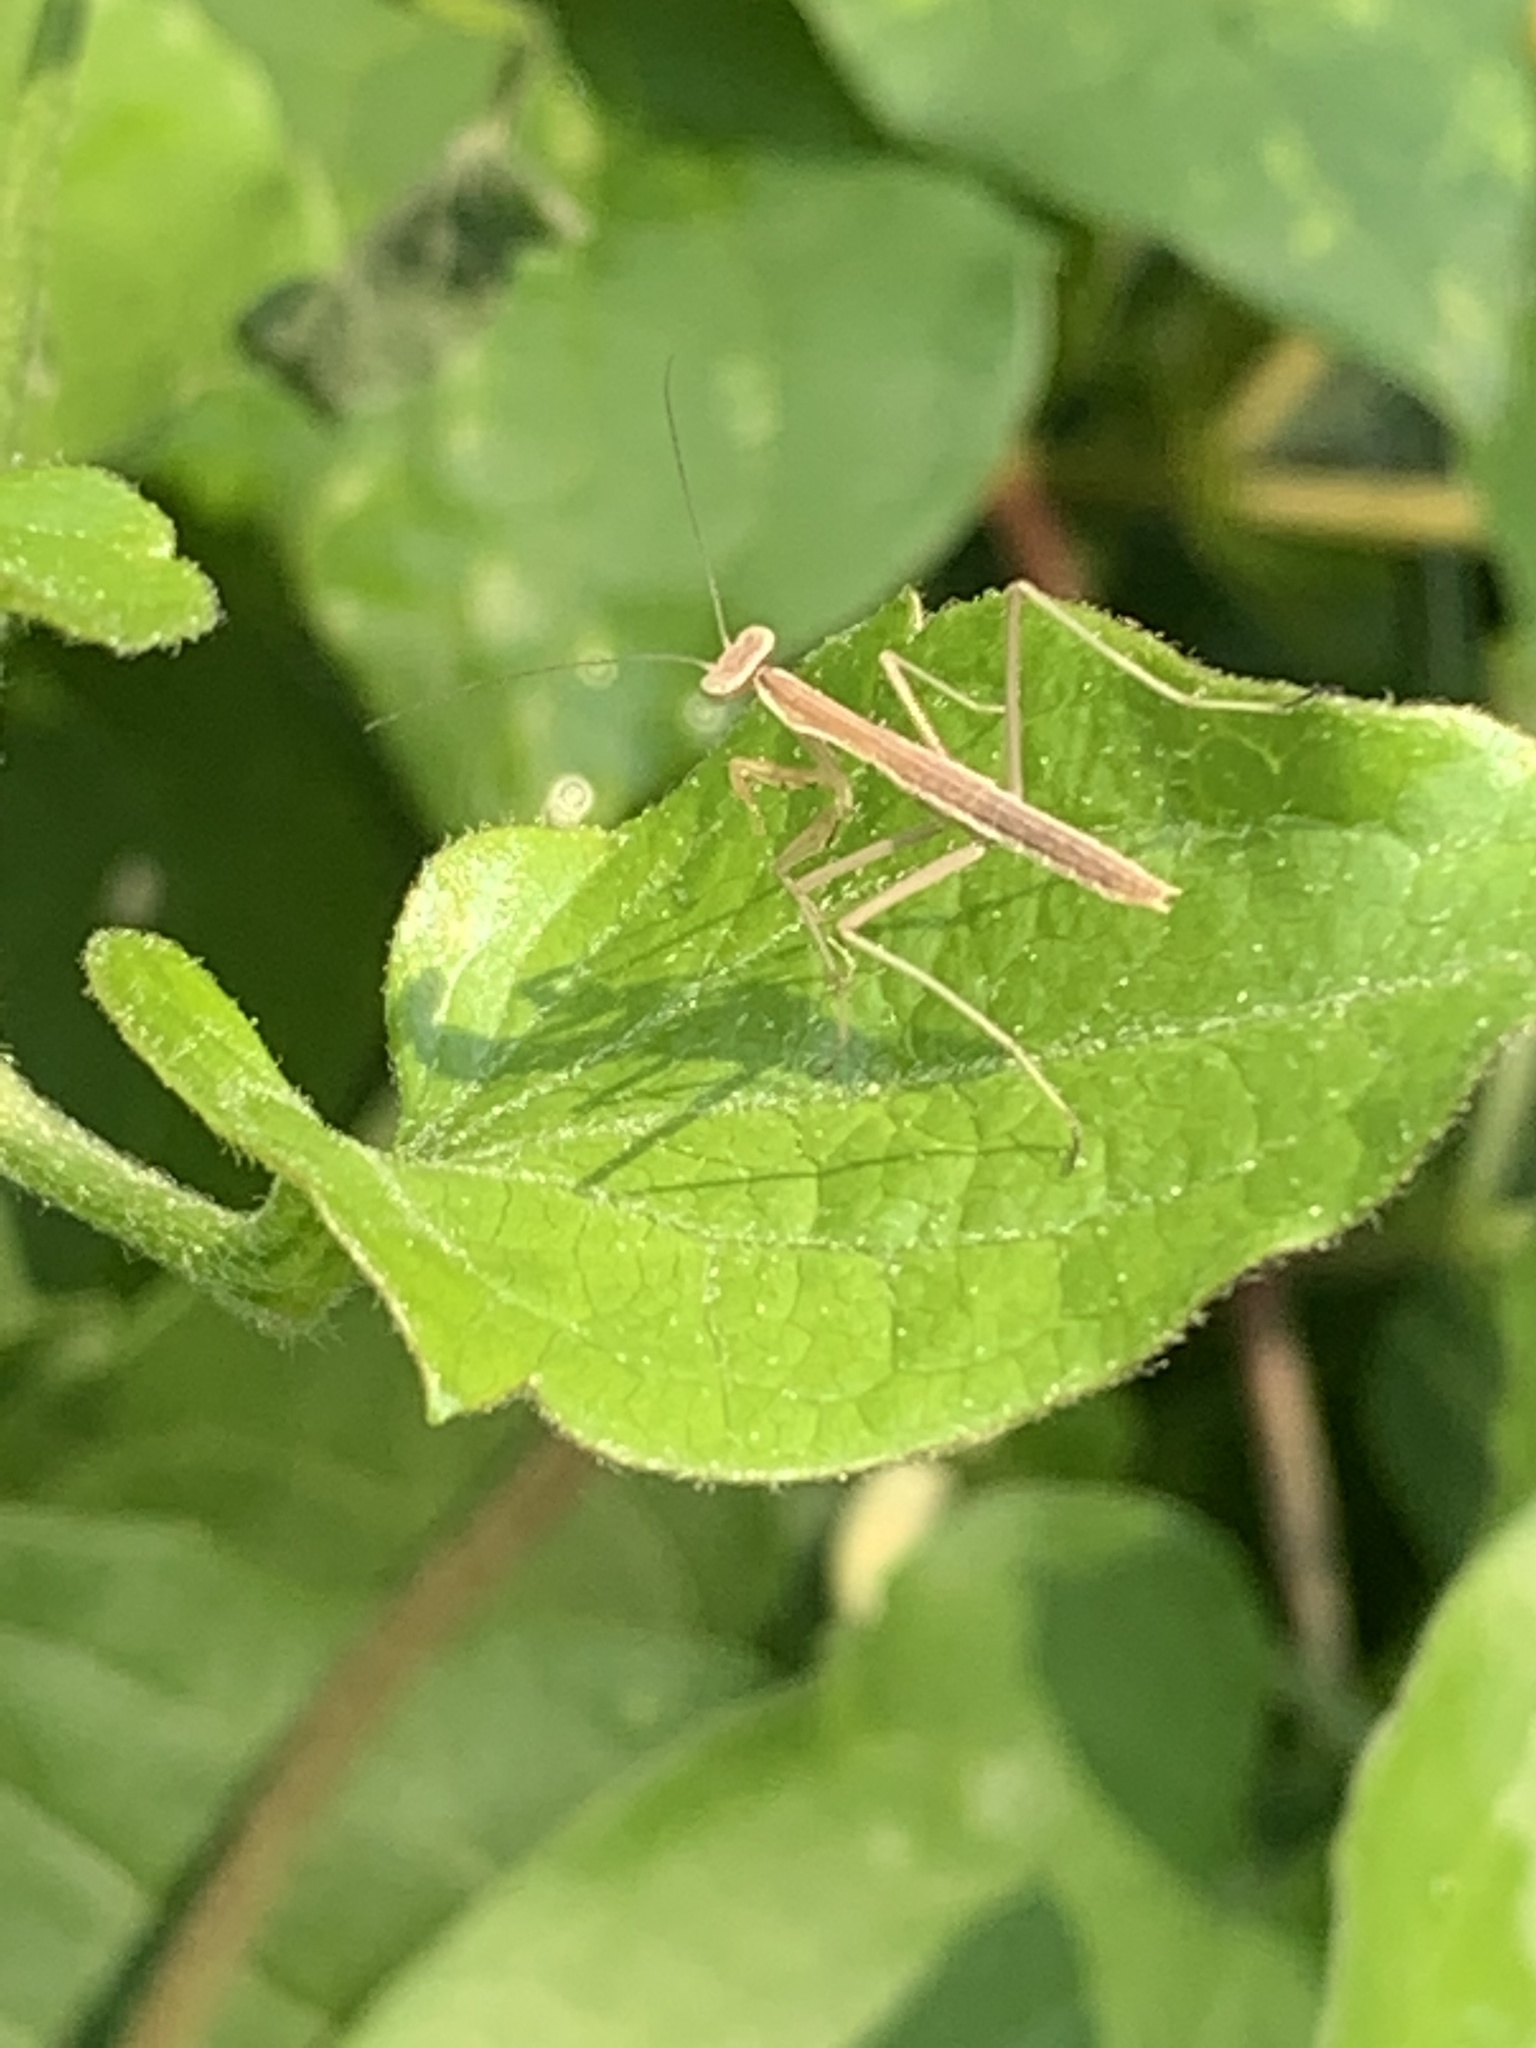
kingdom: Animalia
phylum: Arthropoda
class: Insecta
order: Mantodea
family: Mantidae
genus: Tenodera
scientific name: Tenodera sinensis
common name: Chinese mantis
